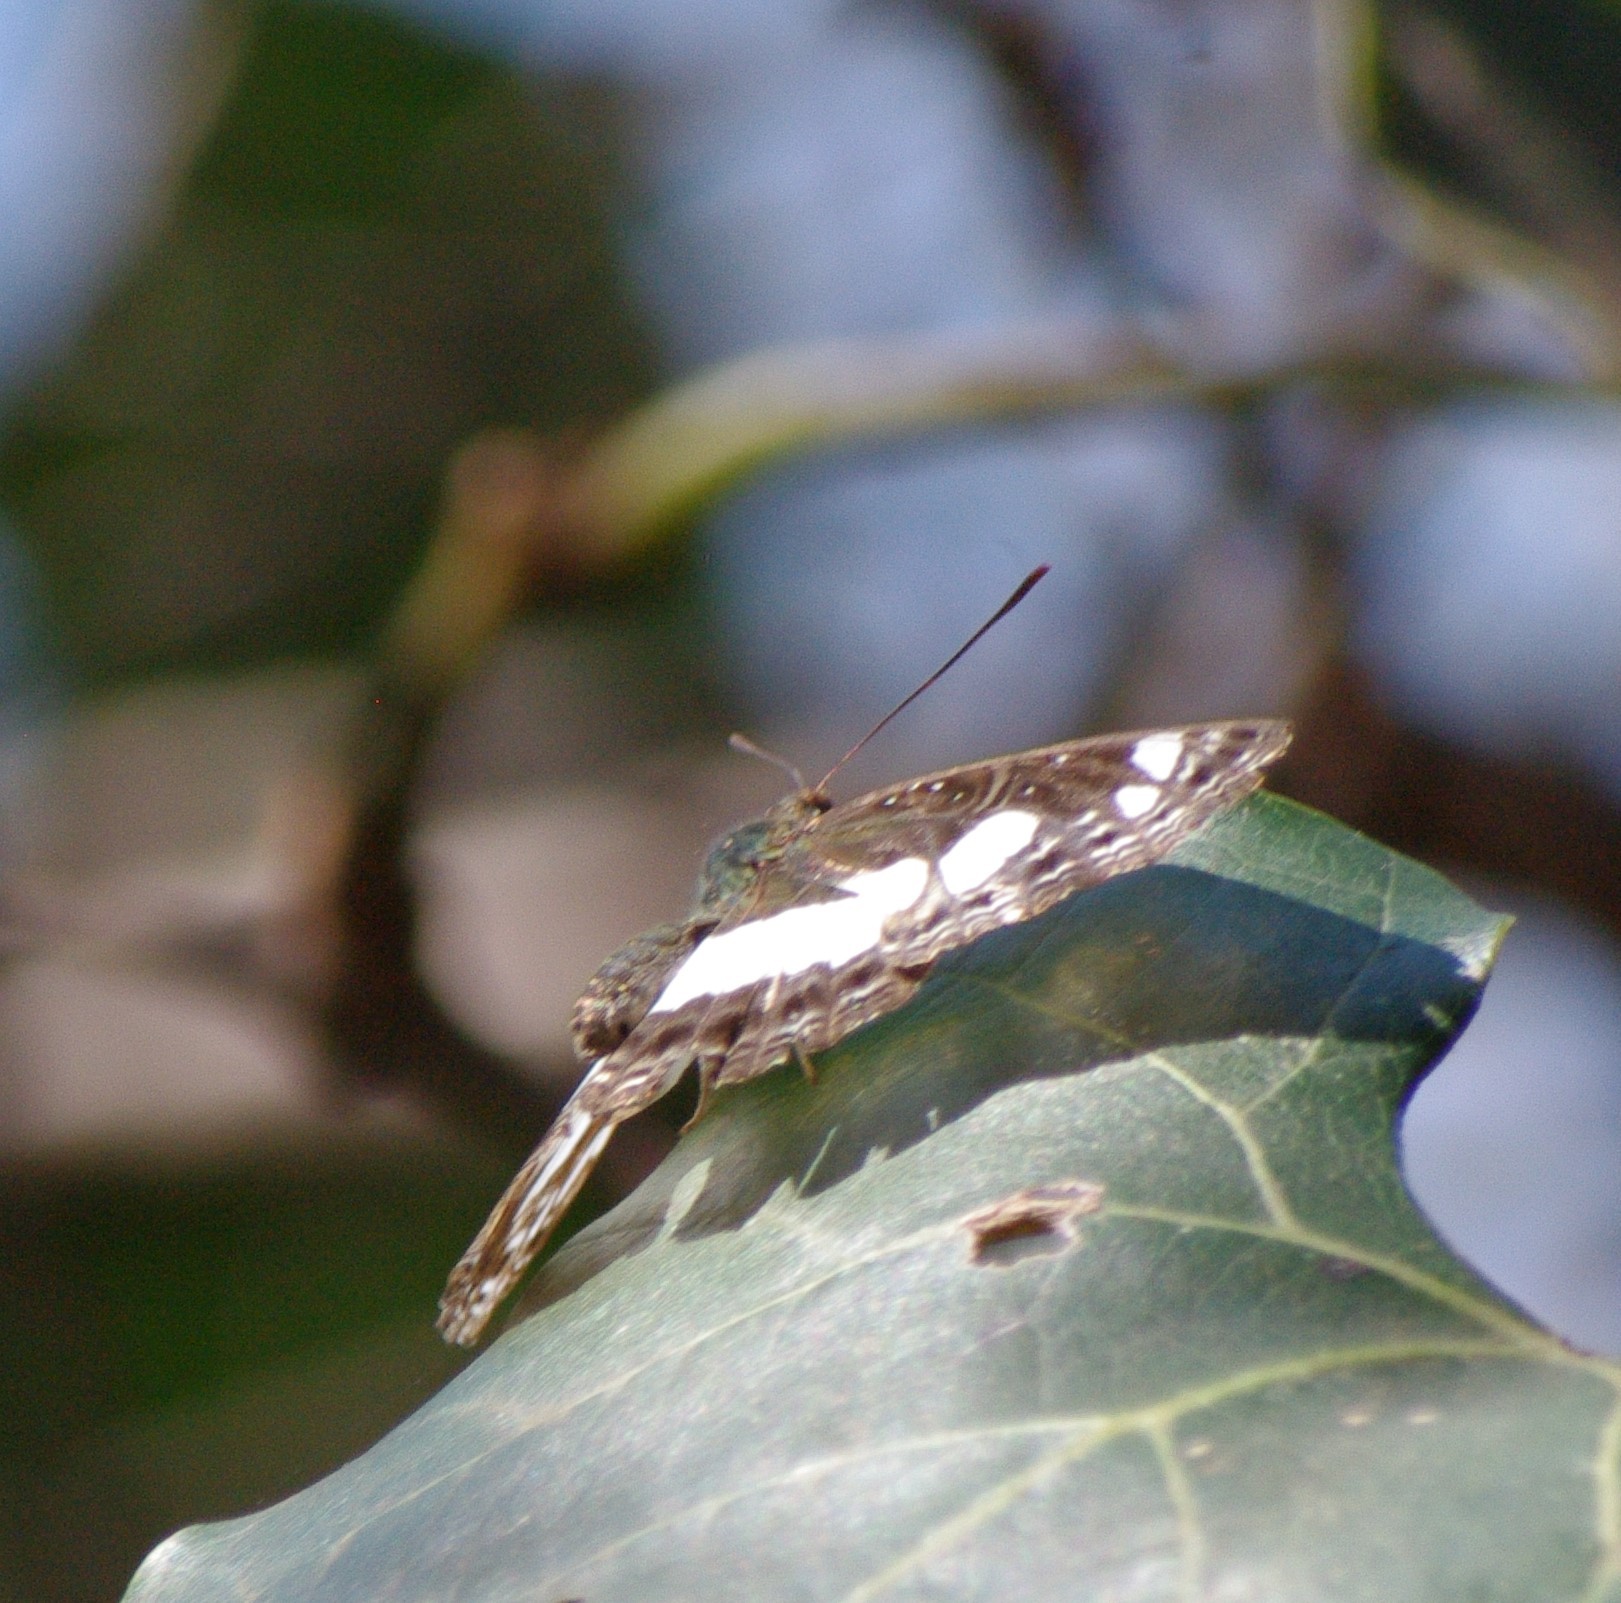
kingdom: Animalia
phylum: Arthropoda
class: Insecta
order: Lepidoptera
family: Nymphalidae
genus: Neptis
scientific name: Neptis saclava
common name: Small spotted sailor
